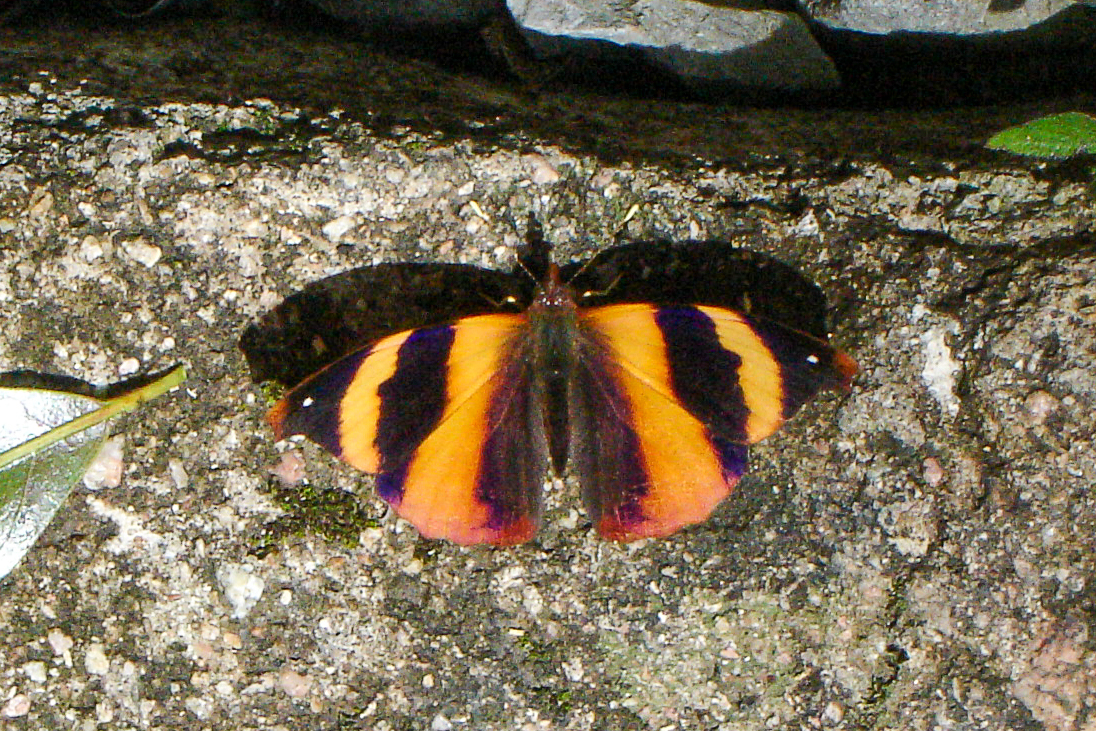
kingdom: Animalia
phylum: Arthropoda
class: Insecta
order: Lepidoptera
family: Nymphalidae
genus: Epiphile
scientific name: Epiphile adrasta
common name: Common banner
